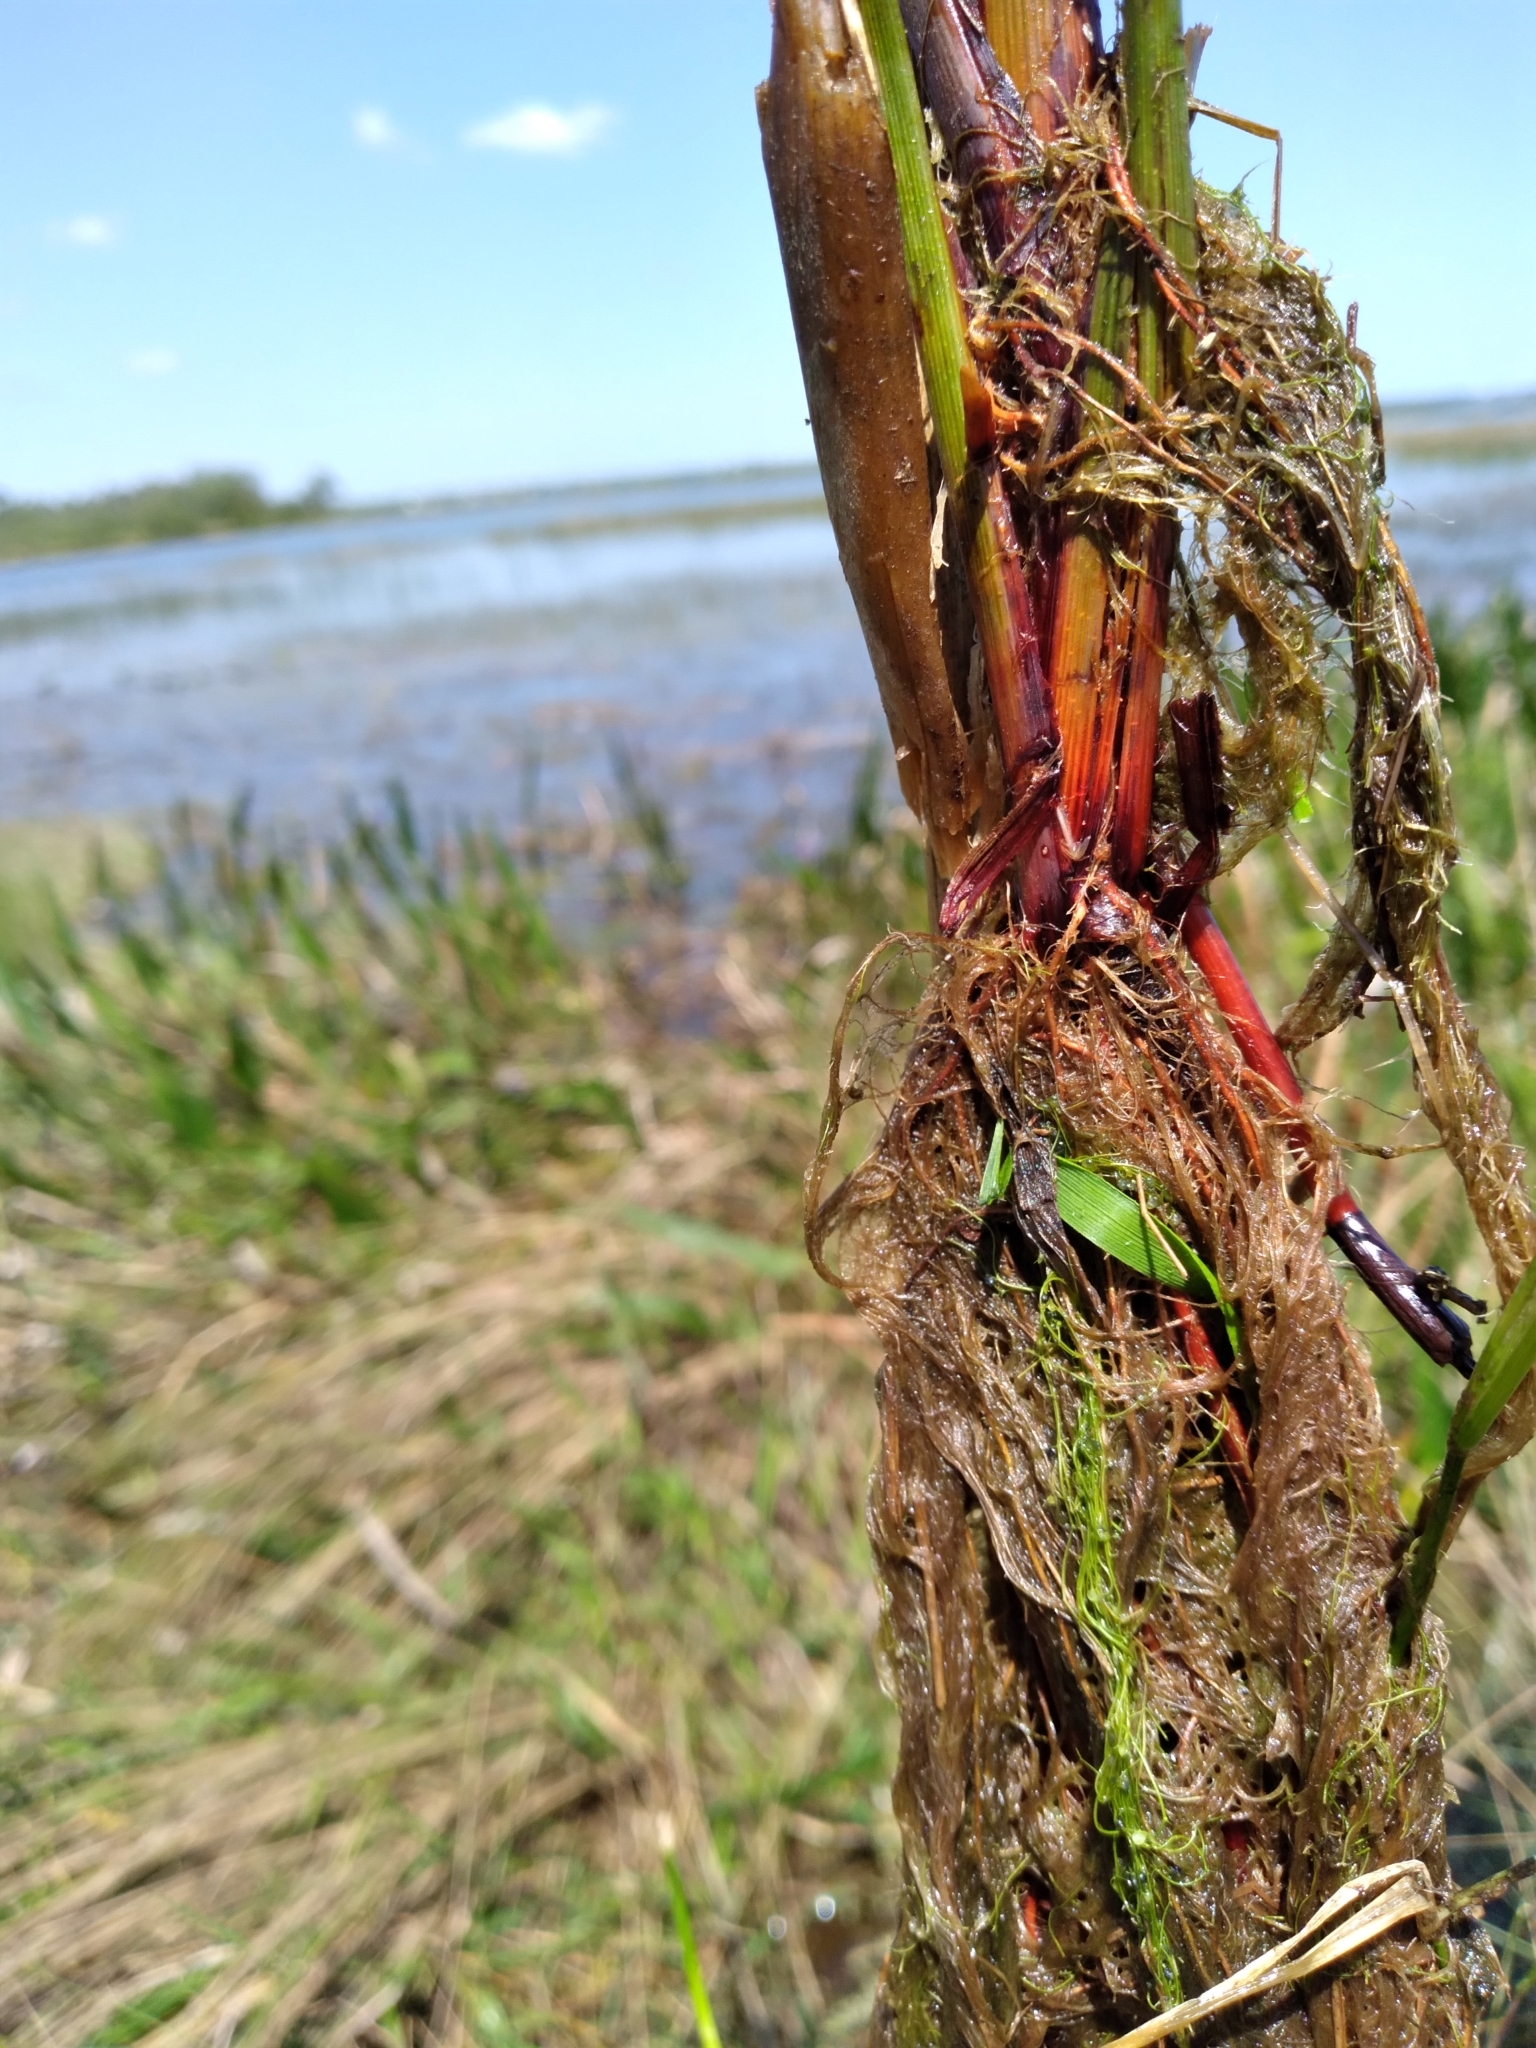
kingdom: Plantae
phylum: Tracheophyta
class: Liliopsida
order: Poales
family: Cyperaceae
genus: Cyperus
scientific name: Cyperus blepharoleptos
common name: Cuban bulrush
